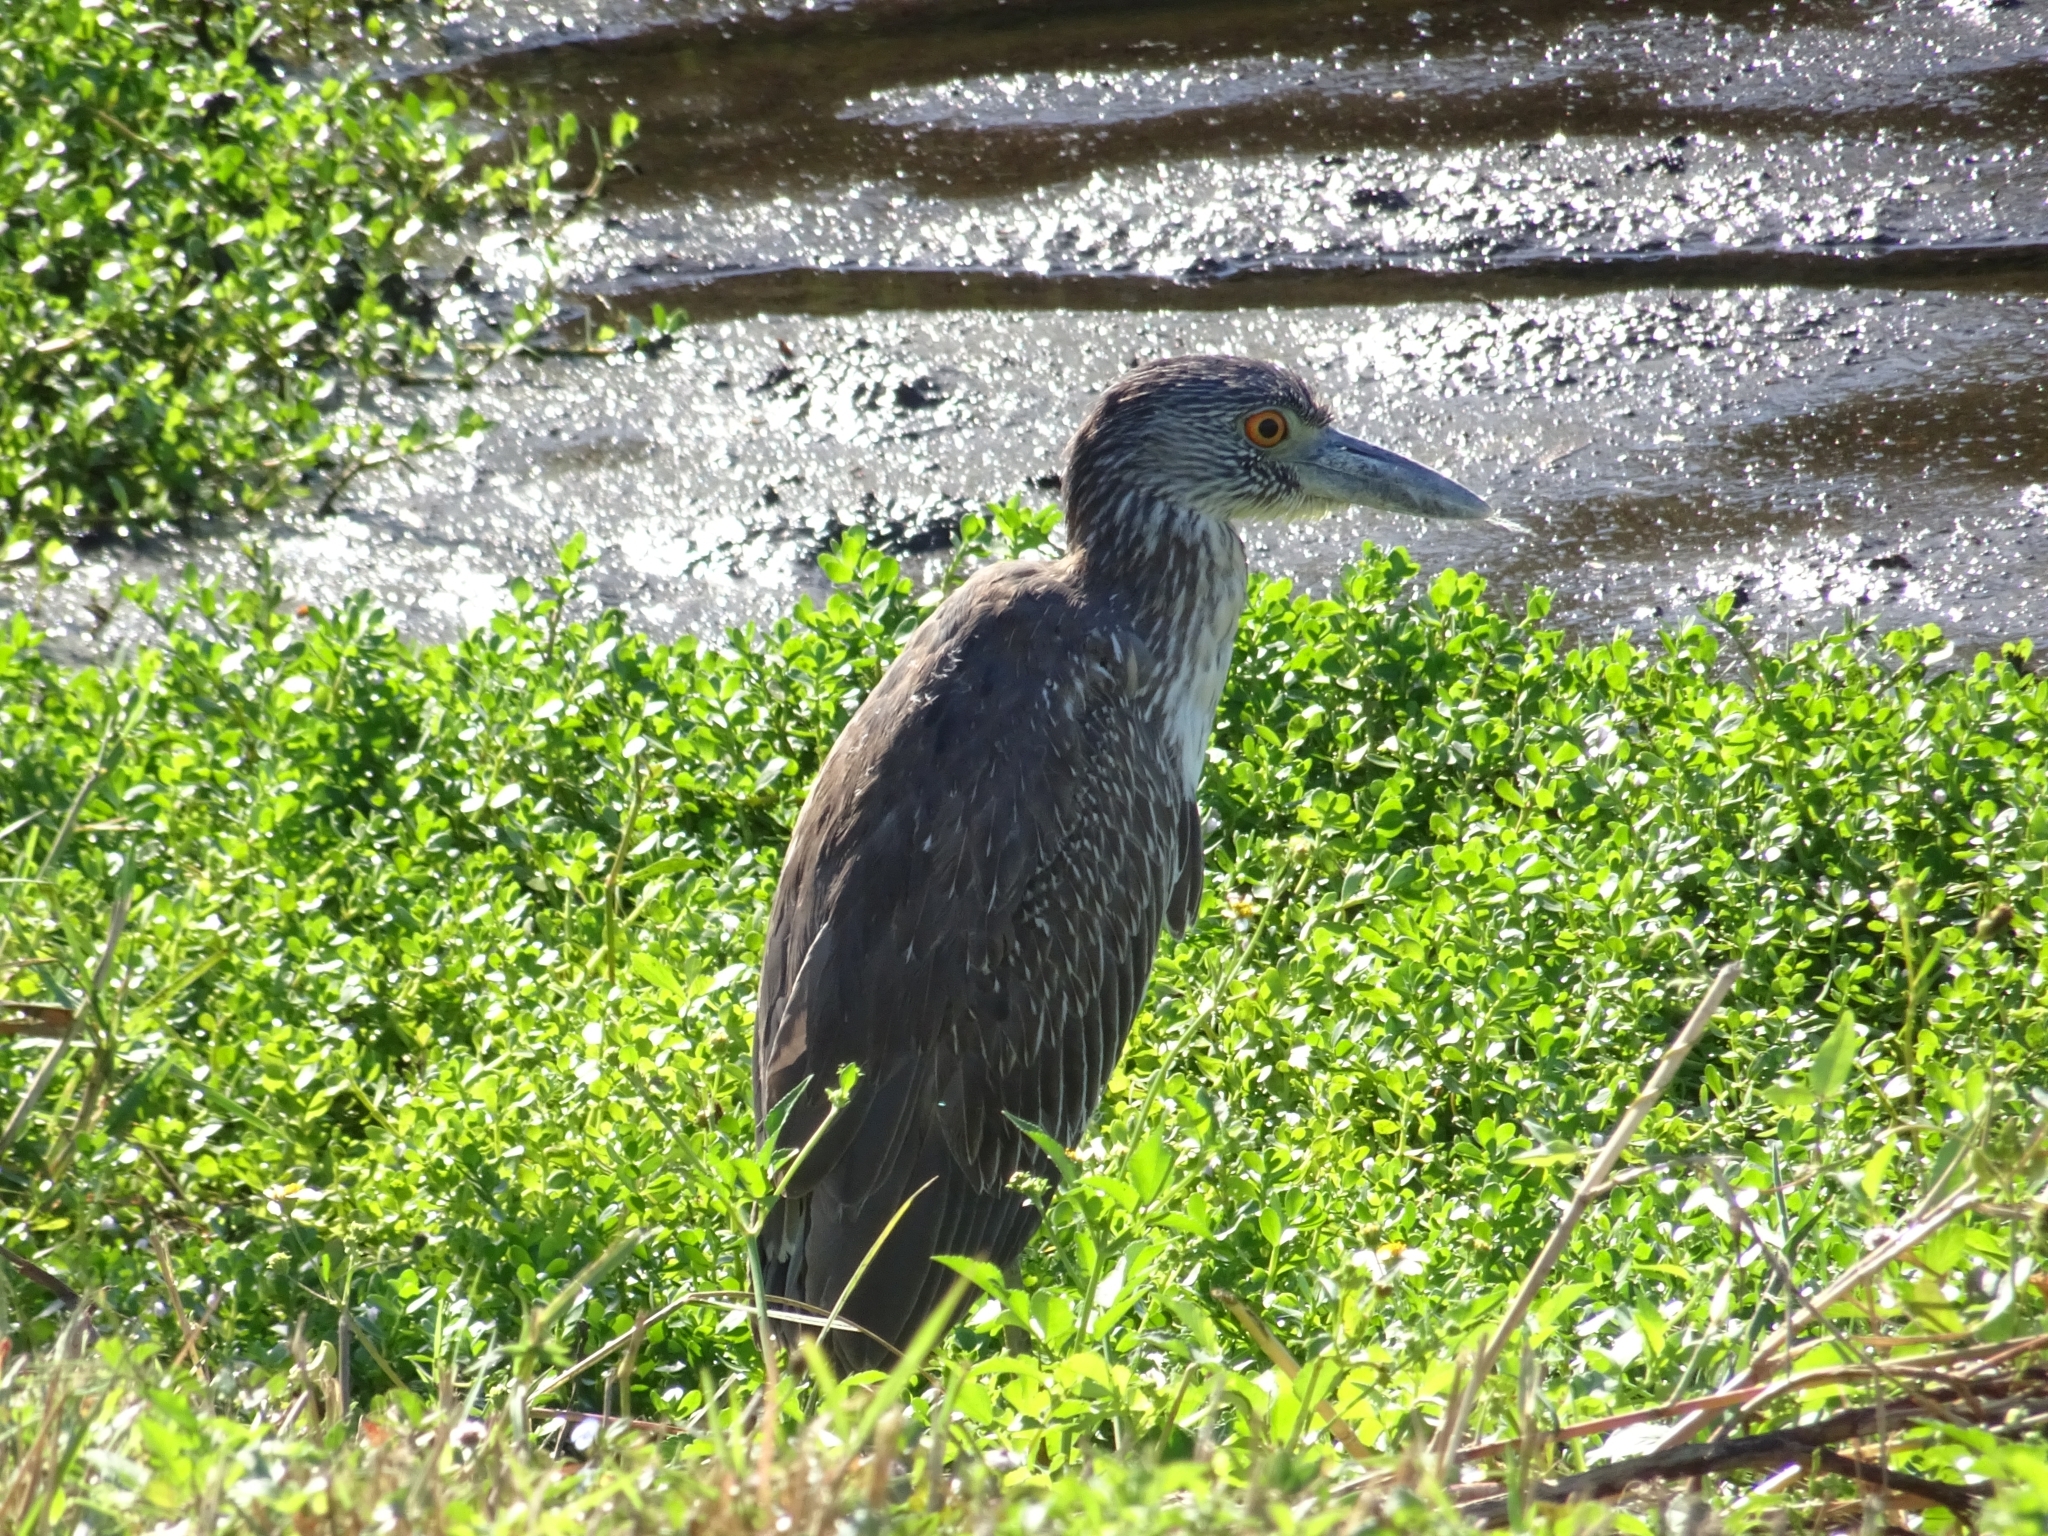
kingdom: Animalia
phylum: Chordata
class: Aves
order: Pelecaniformes
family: Ardeidae
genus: Nyctanassa
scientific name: Nyctanassa violacea
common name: Yellow-crowned night heron
